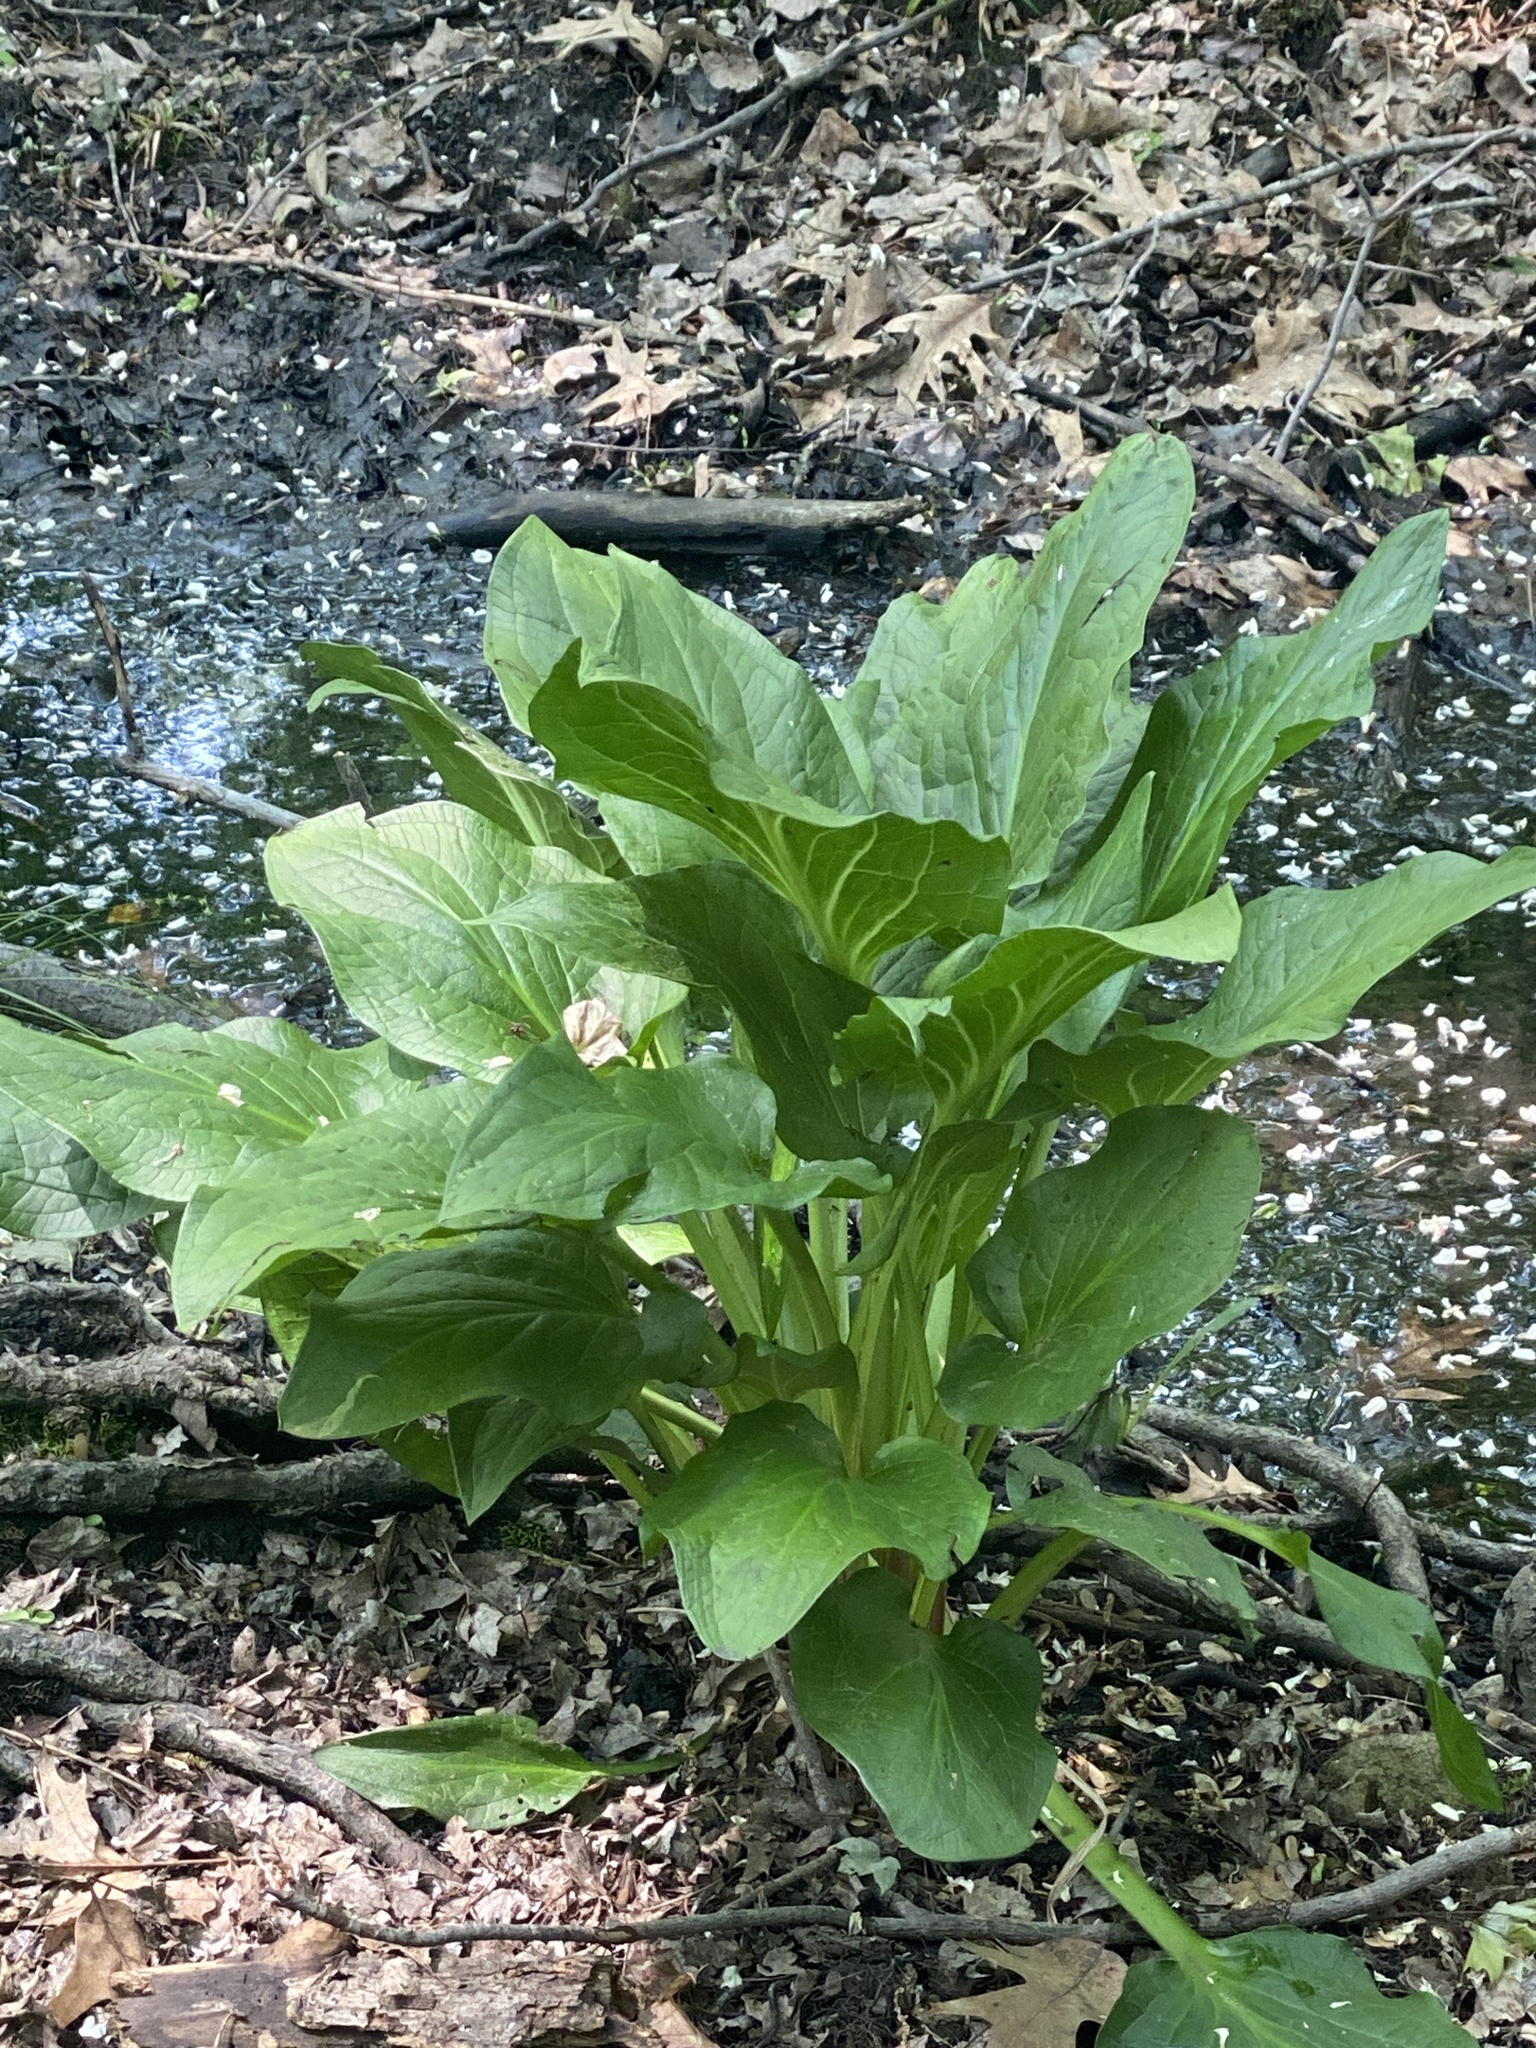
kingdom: Plantae
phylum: Tracheophyta
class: Liliopsida
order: Alismatales
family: Araceae
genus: Symplocarpus
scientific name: Symplocarpus foetidus
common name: Eastern skunk cabbage
